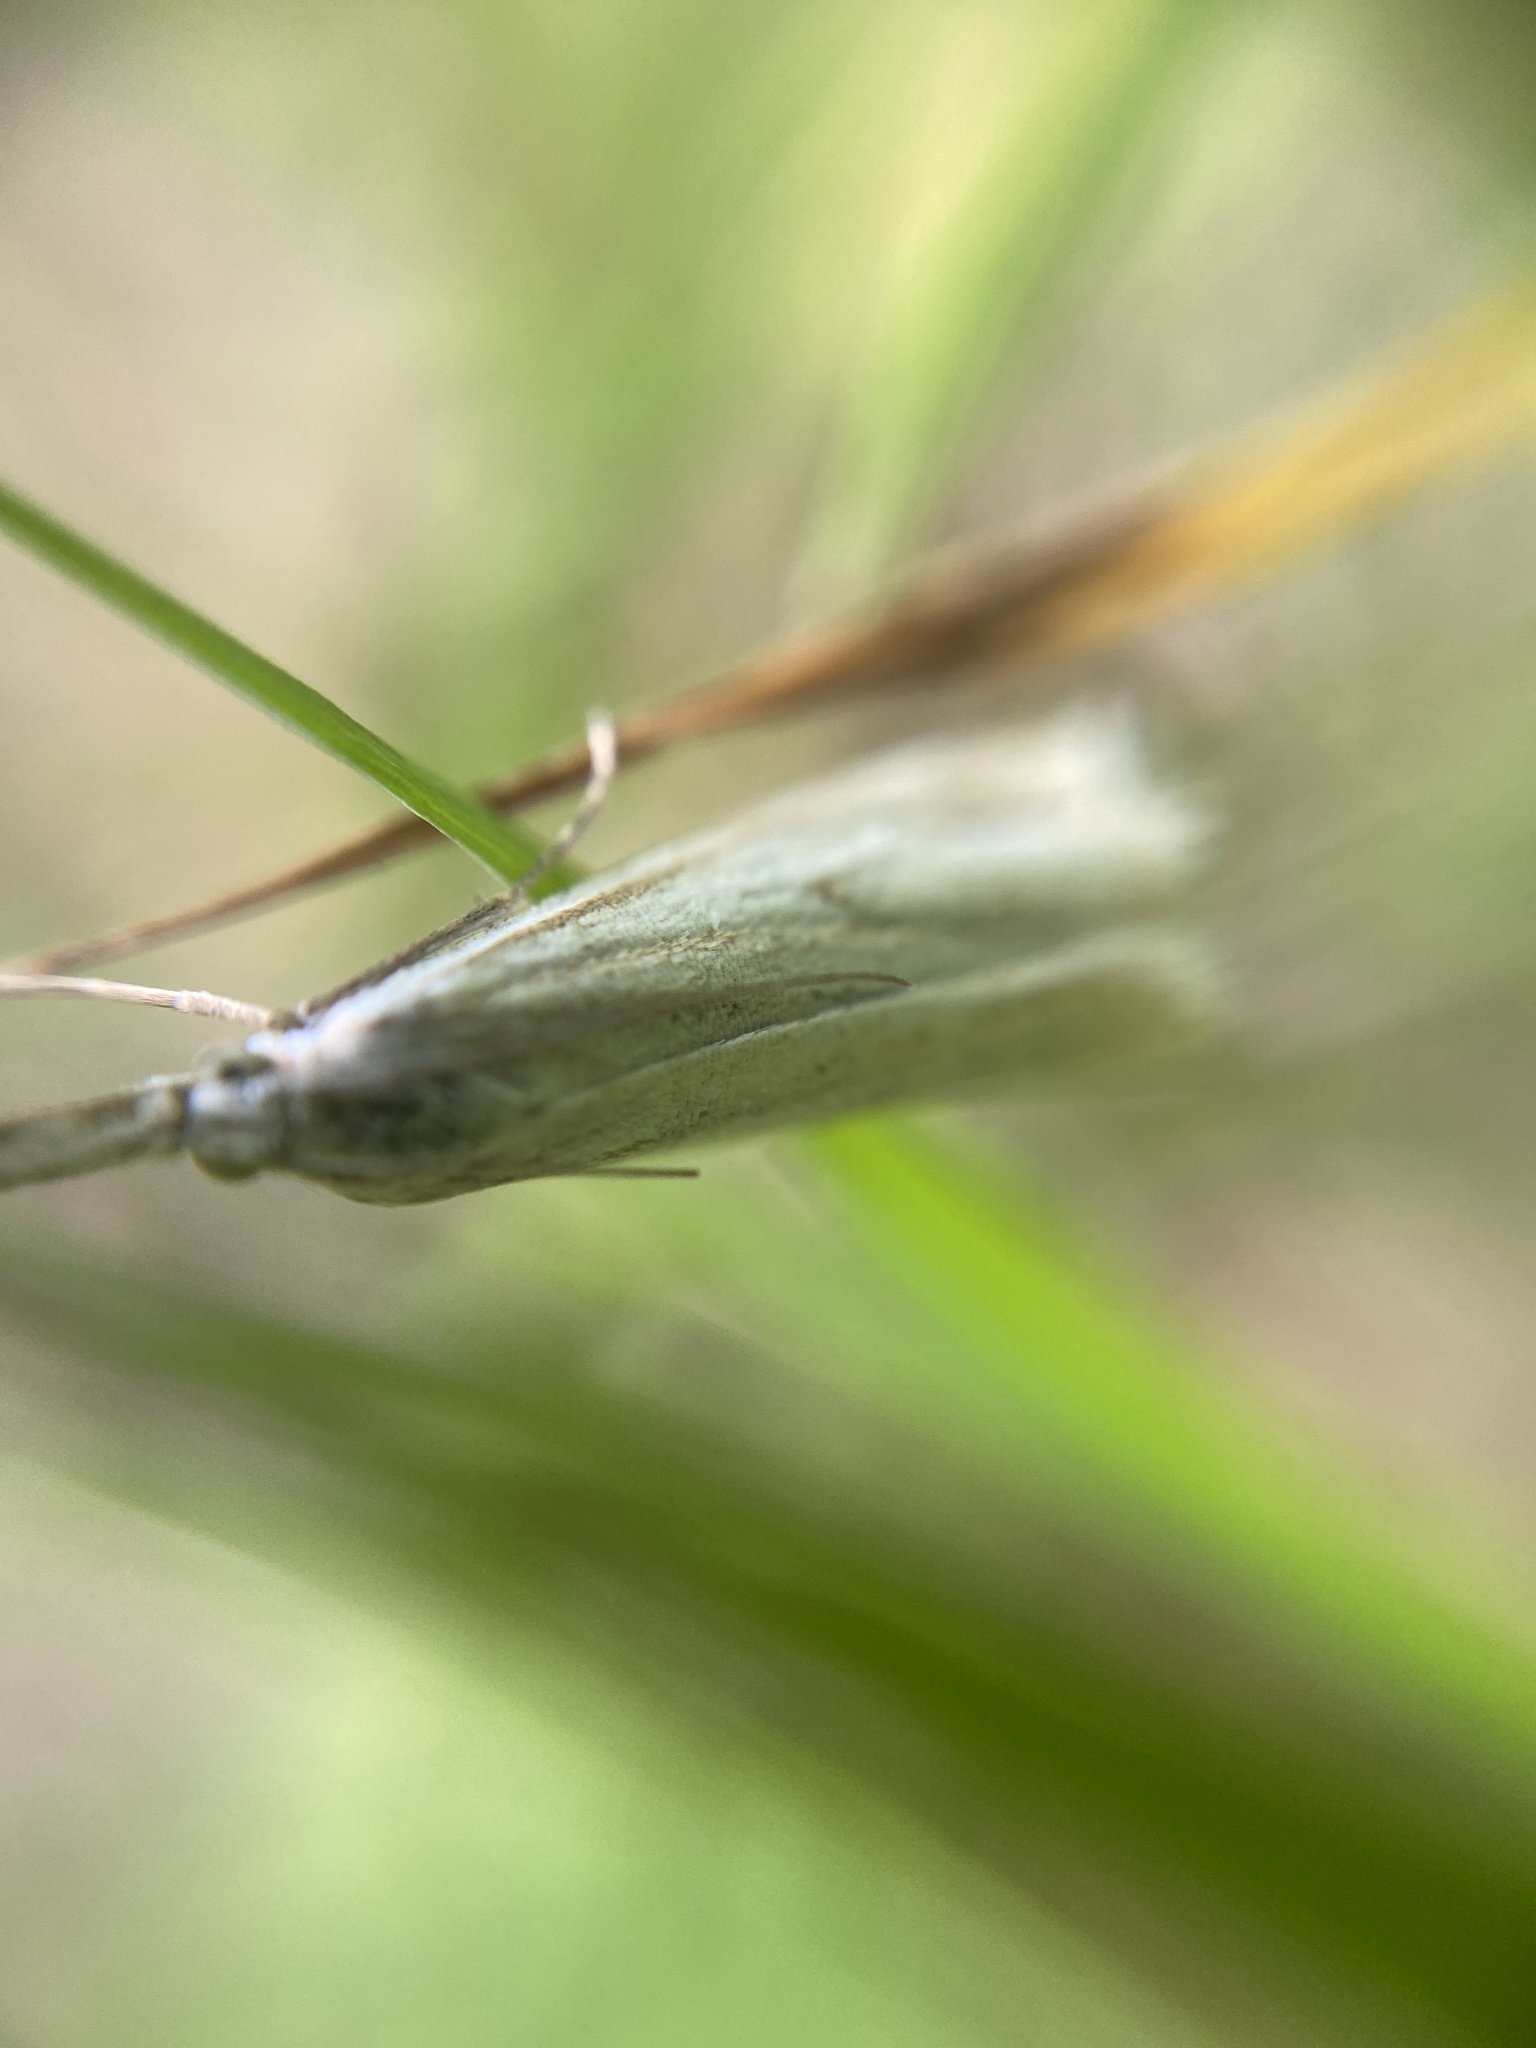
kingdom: Animalia
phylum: Arthropoda
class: Insecta
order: Lepidoptera
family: Crambidae
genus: Crambus
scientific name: Crambus nemorella
